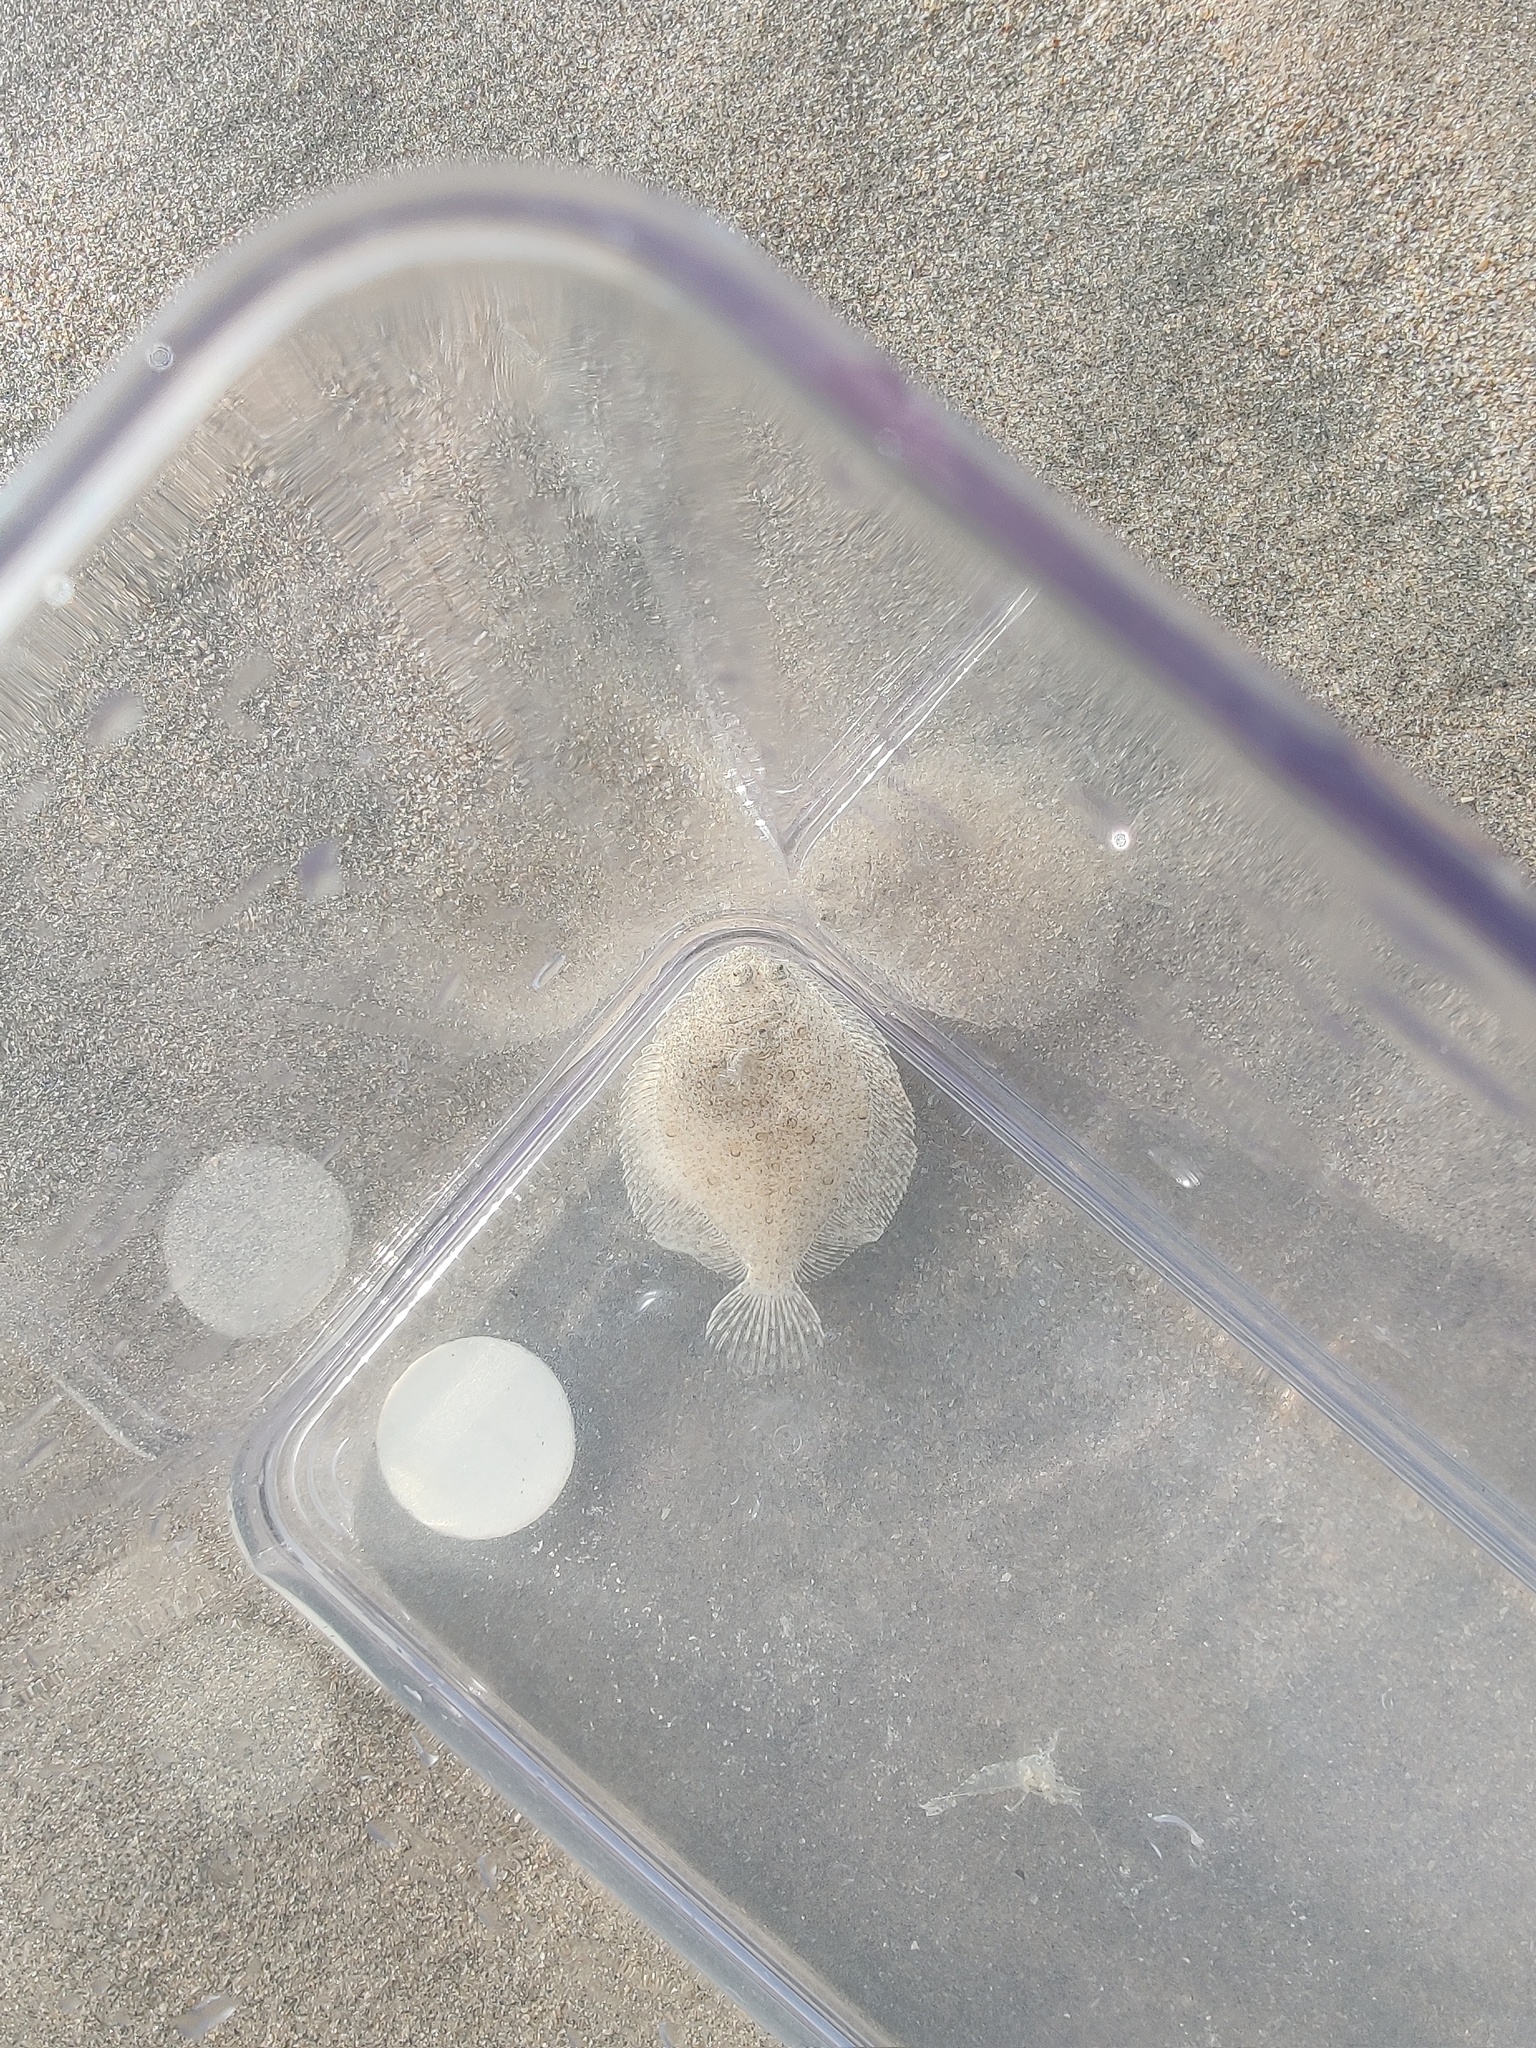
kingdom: Animalia
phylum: Chordata
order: Pleuronectiformes
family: Scophthalmidae
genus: Scophthalmus
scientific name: Scophthalmus maximus
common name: Turbot
